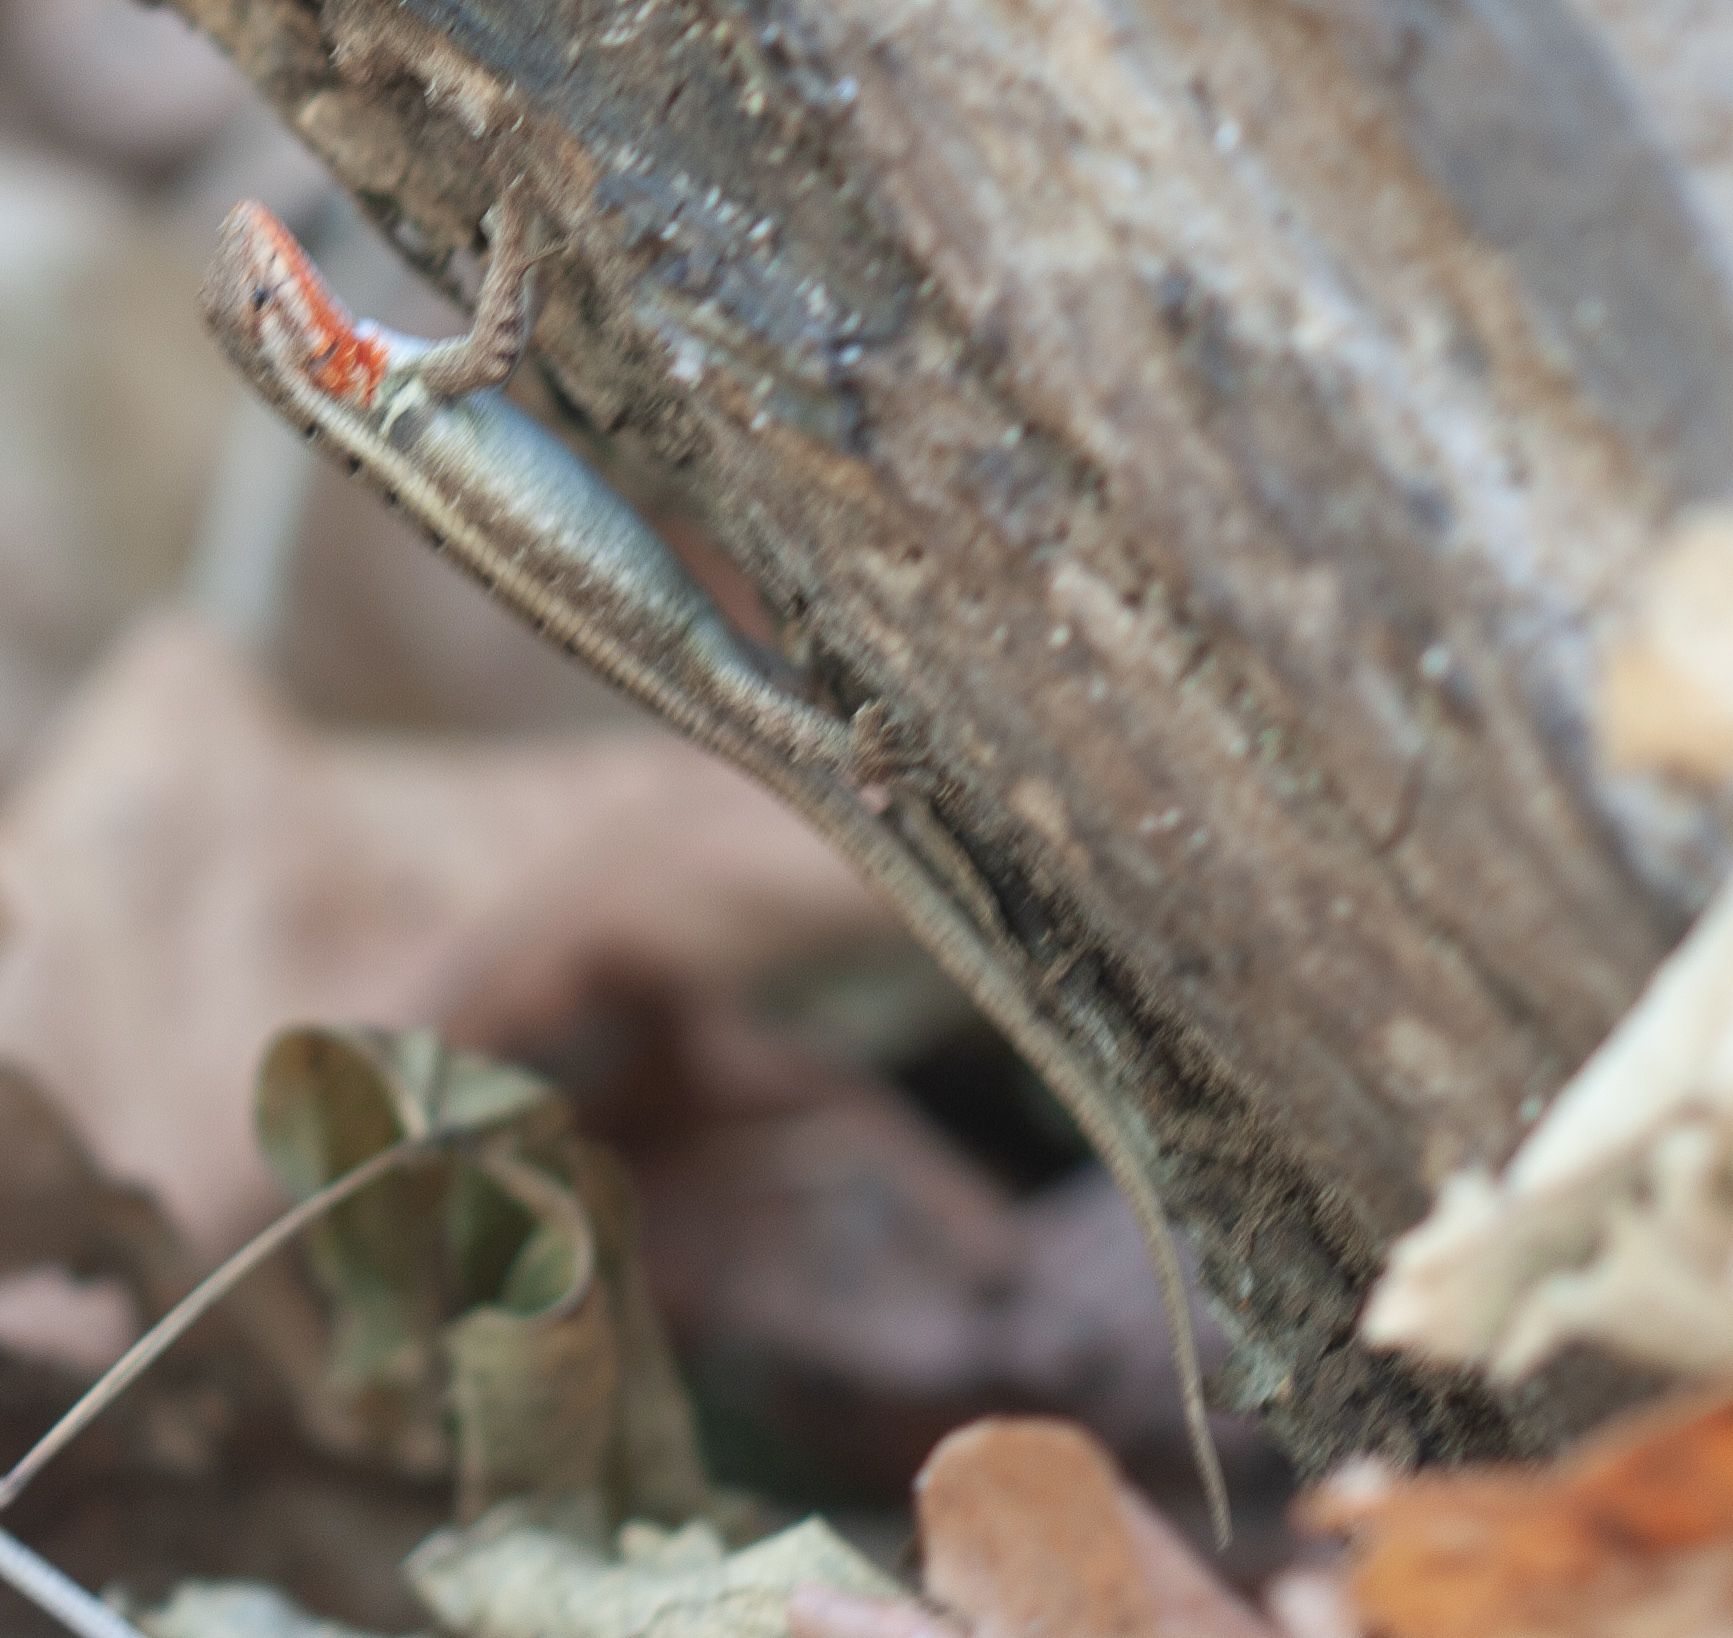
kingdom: Animalia
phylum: Chordata
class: Squamata
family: Phrynosomatidae
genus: Sceloporus
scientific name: Sceloporus variabilis
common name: Rosebelly lizard
